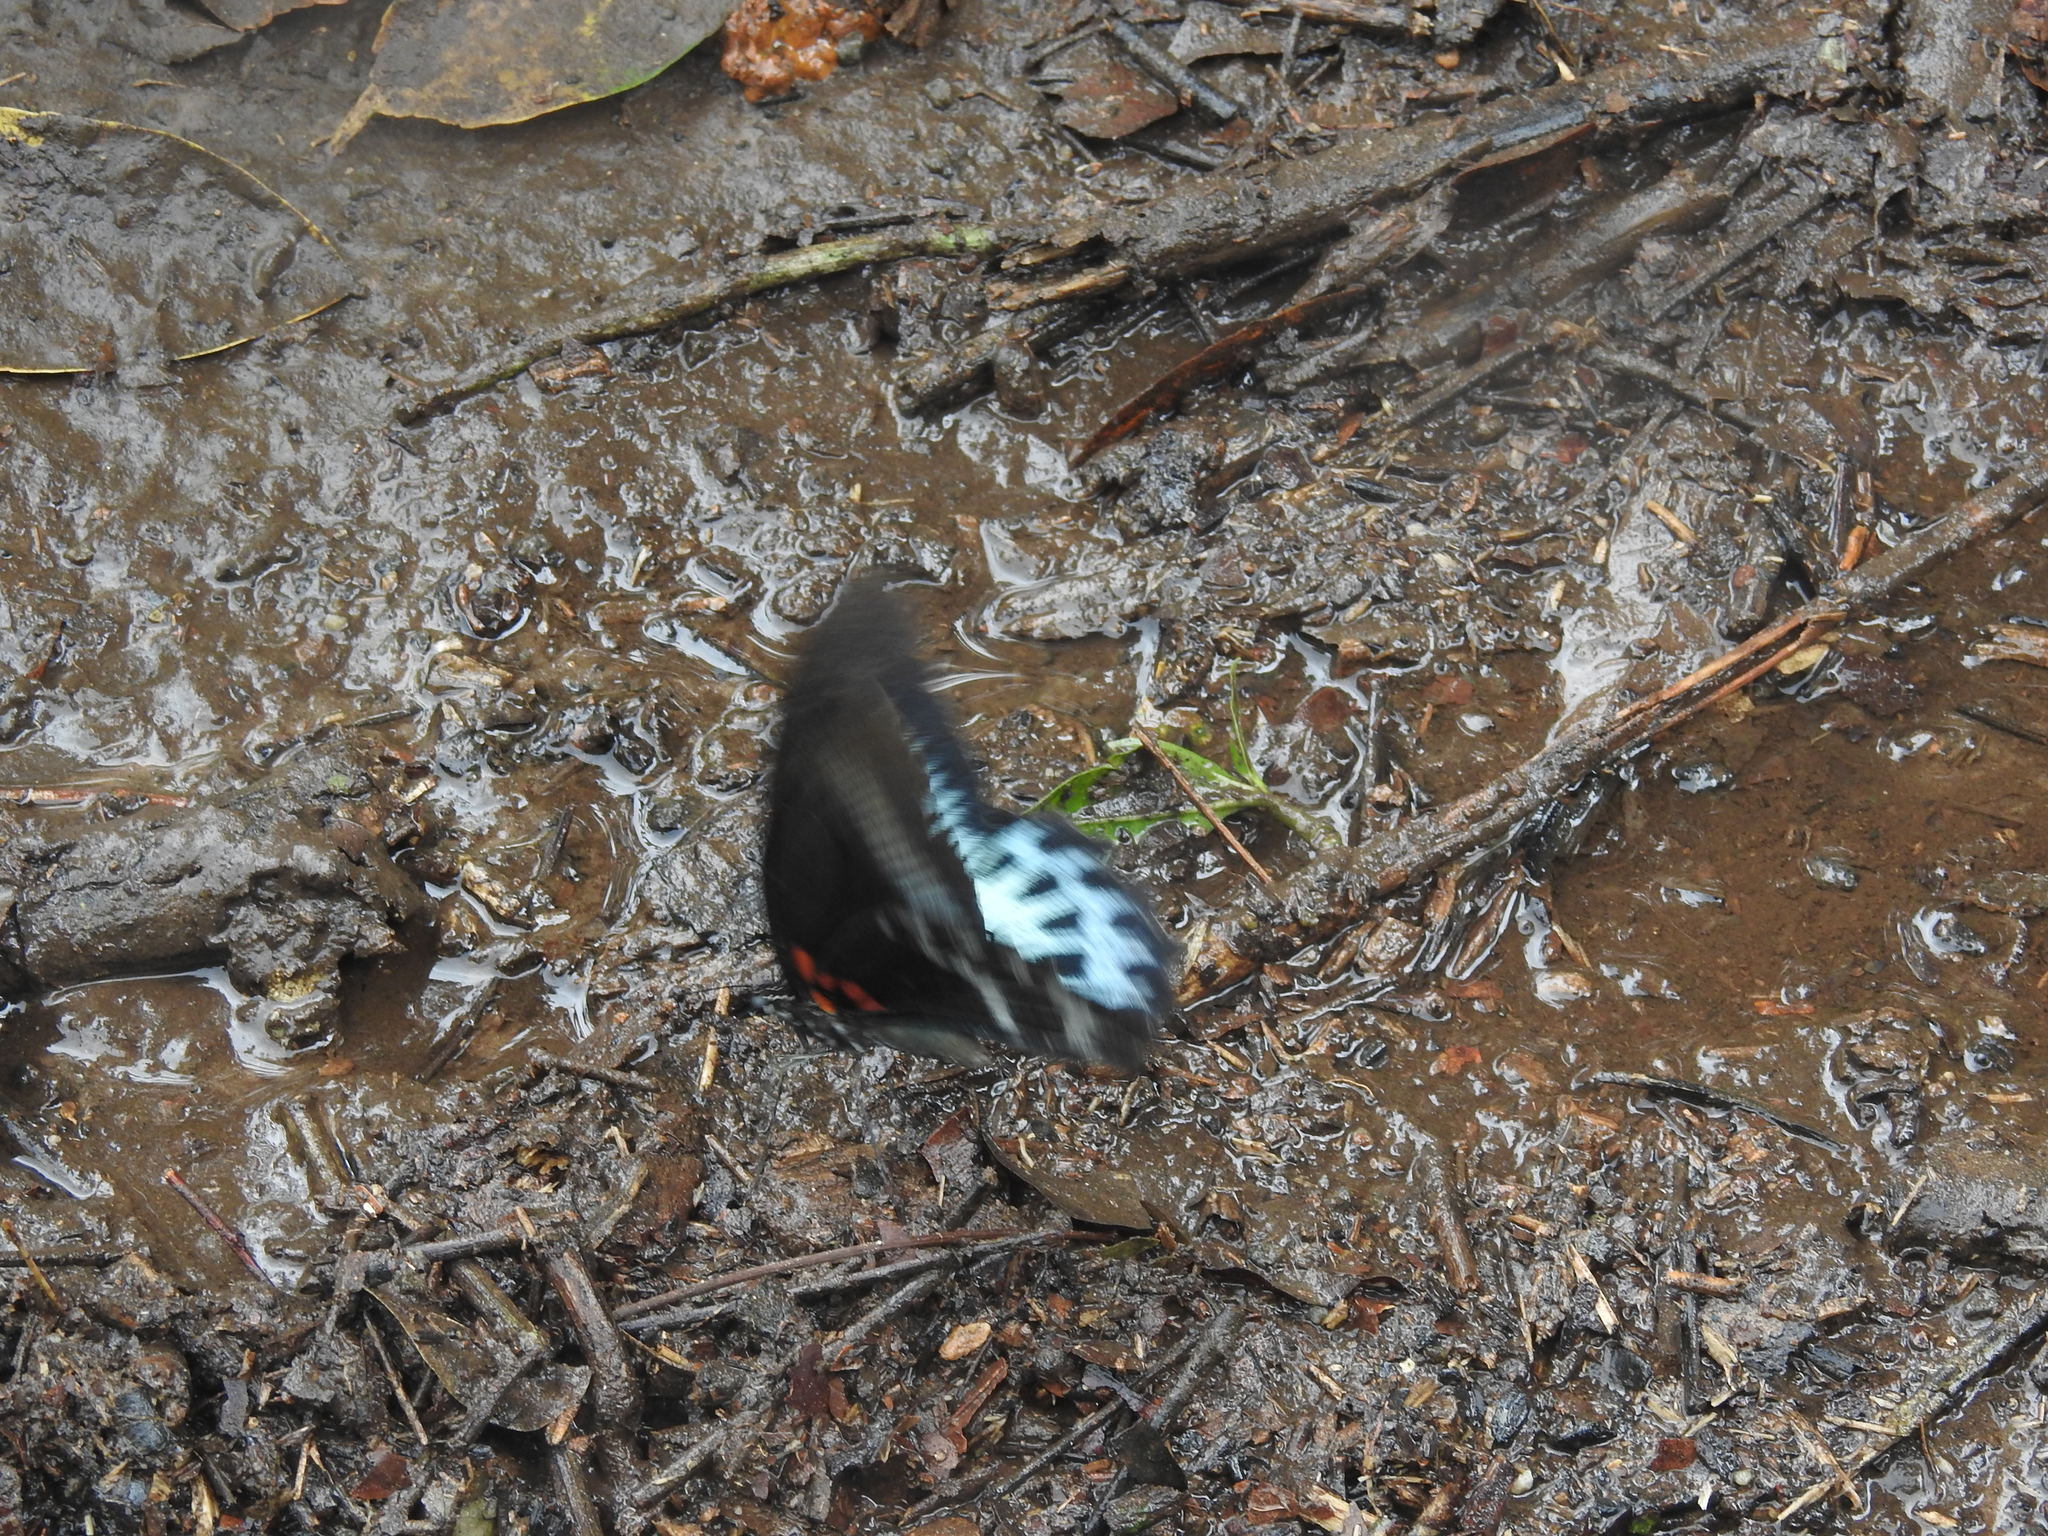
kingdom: Animalia
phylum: Arthropoda
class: Insecta
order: Lepidoptera
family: Papilionidae
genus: Papilio
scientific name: Papilio memnon
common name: Great mormon
